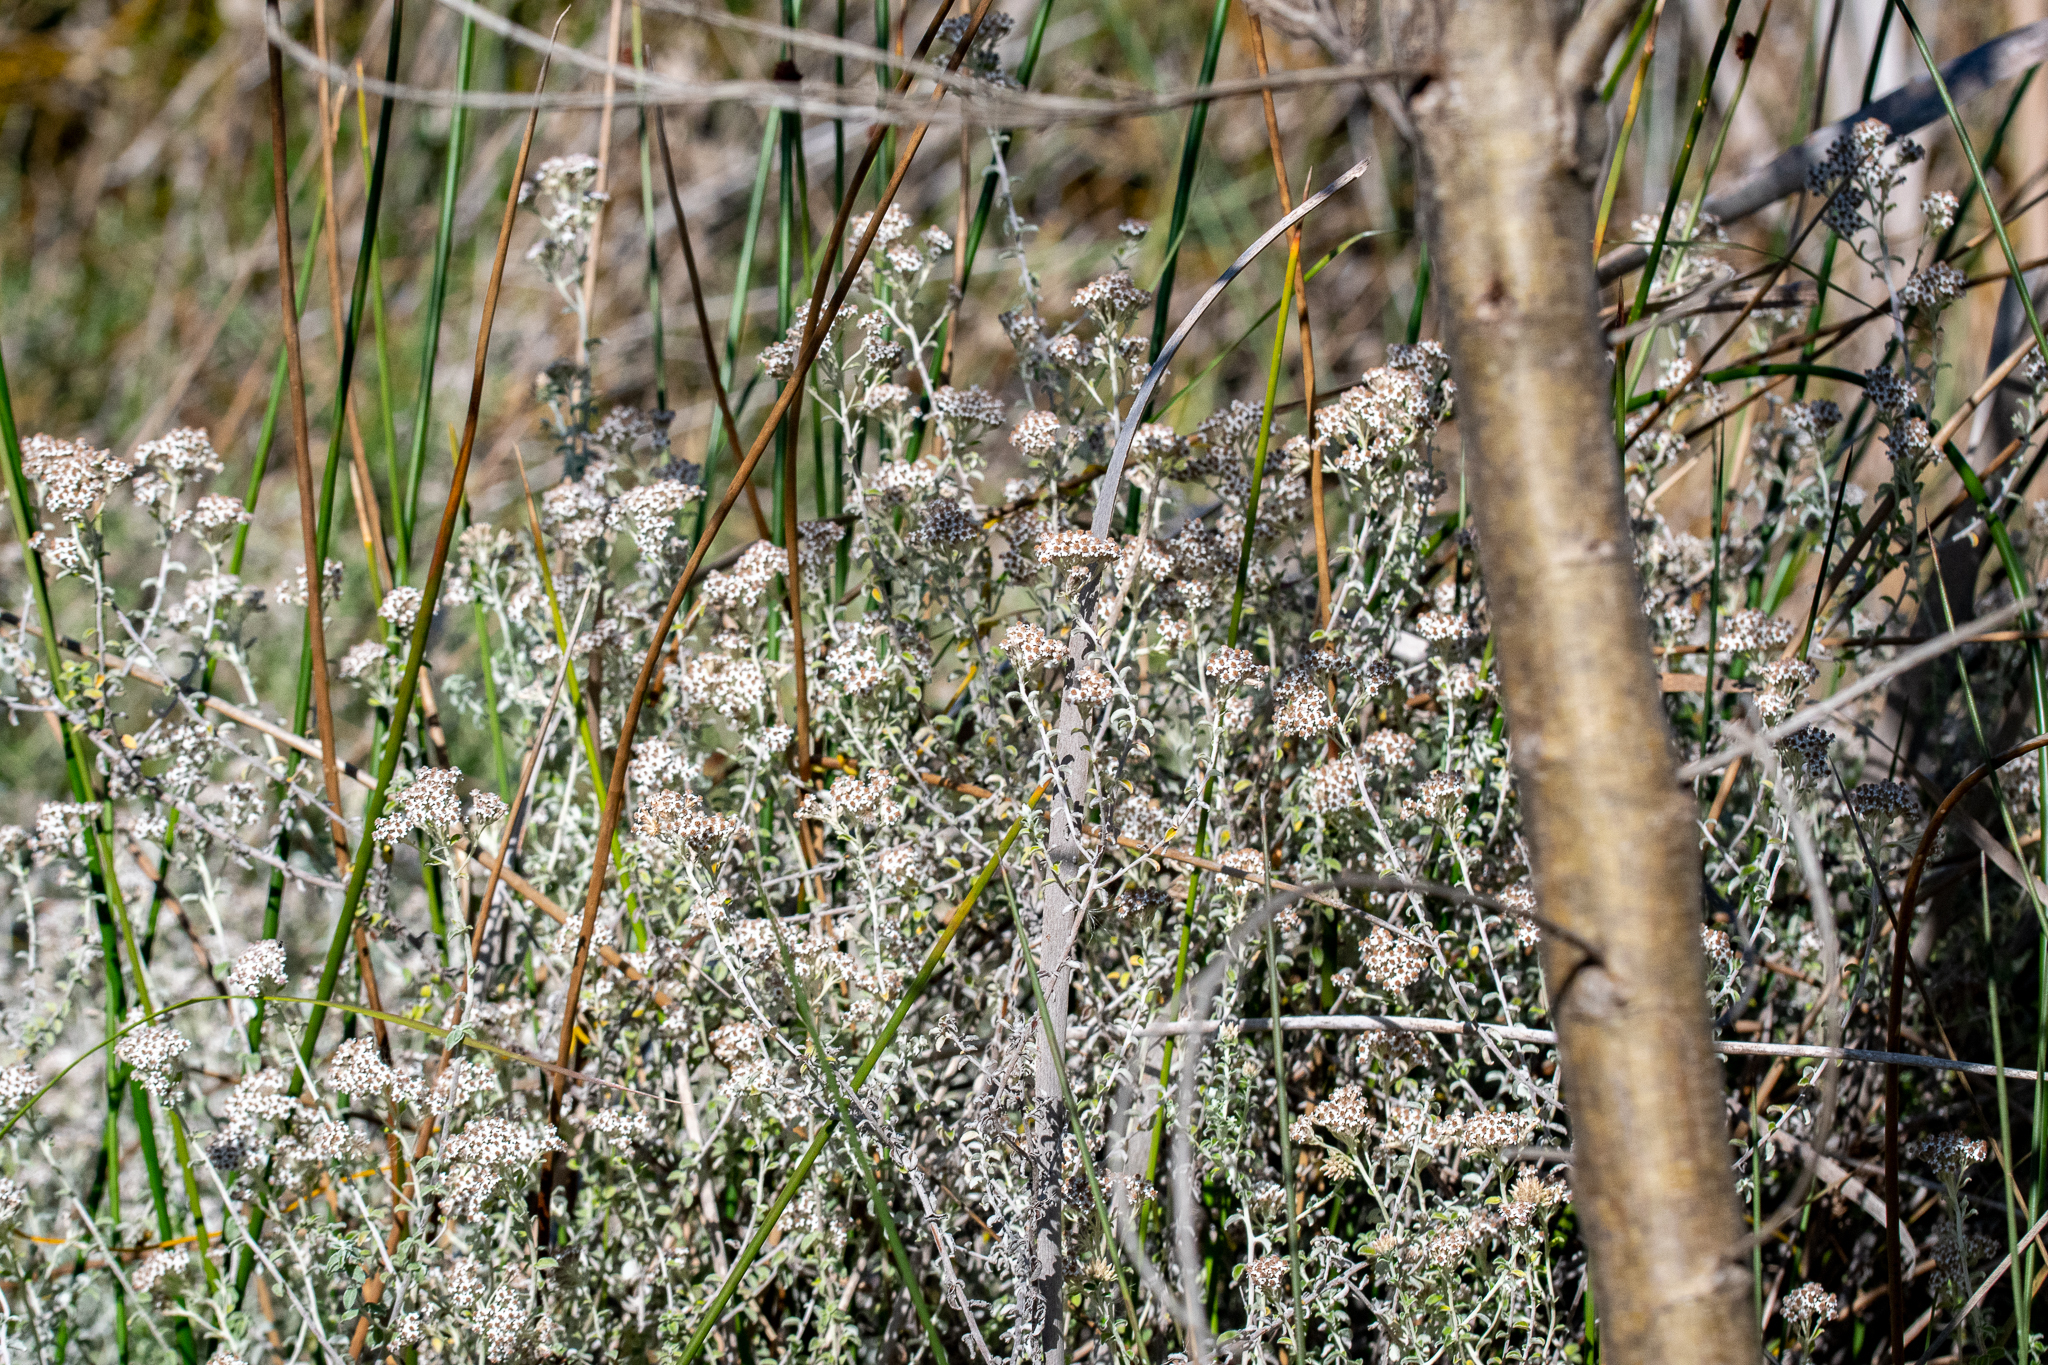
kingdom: Plantae
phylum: Tracheophyta
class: Magnoliopsida
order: Asterales
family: Asteraceae
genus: Plecostachys
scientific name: Plecostachys serpyllifolia
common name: Petite licorice
